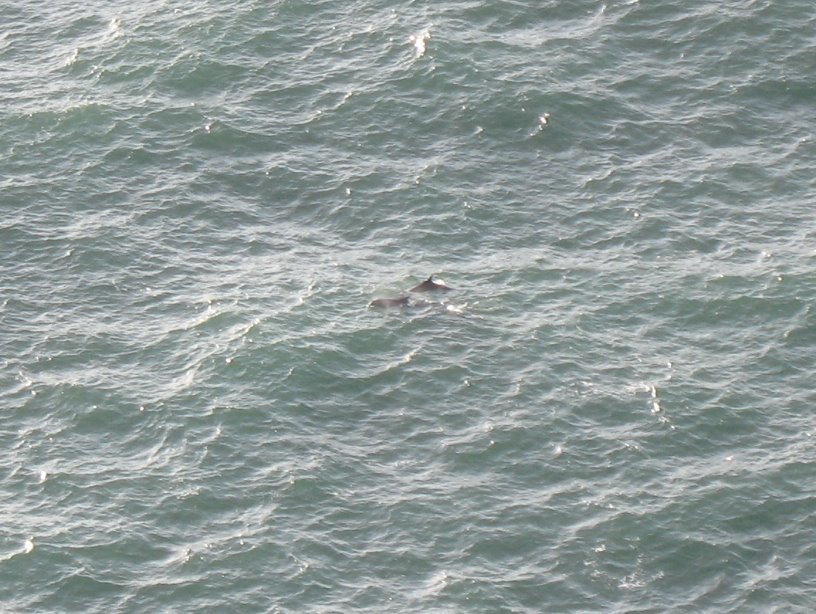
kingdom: Animalia
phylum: Chordata
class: Mammalia
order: Cetacea
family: Delphinidae
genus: Tursiops
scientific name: Tursiops truncatus
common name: Bottlenose dolphin
